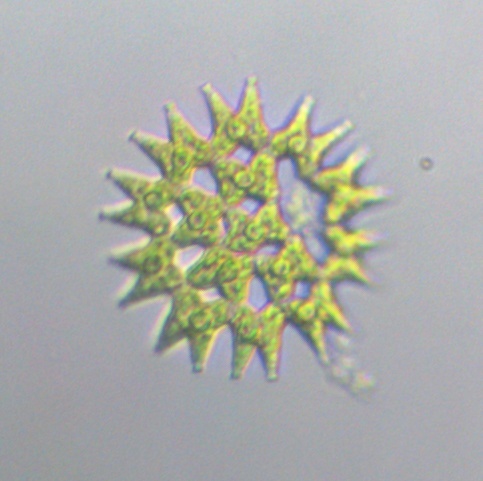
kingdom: Plantae
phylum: Chlorophyta
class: Chlorophyceae
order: Sphaeropleales
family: Hydrodictyaceae
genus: Pediastrum
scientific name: Pediastrum duplex
